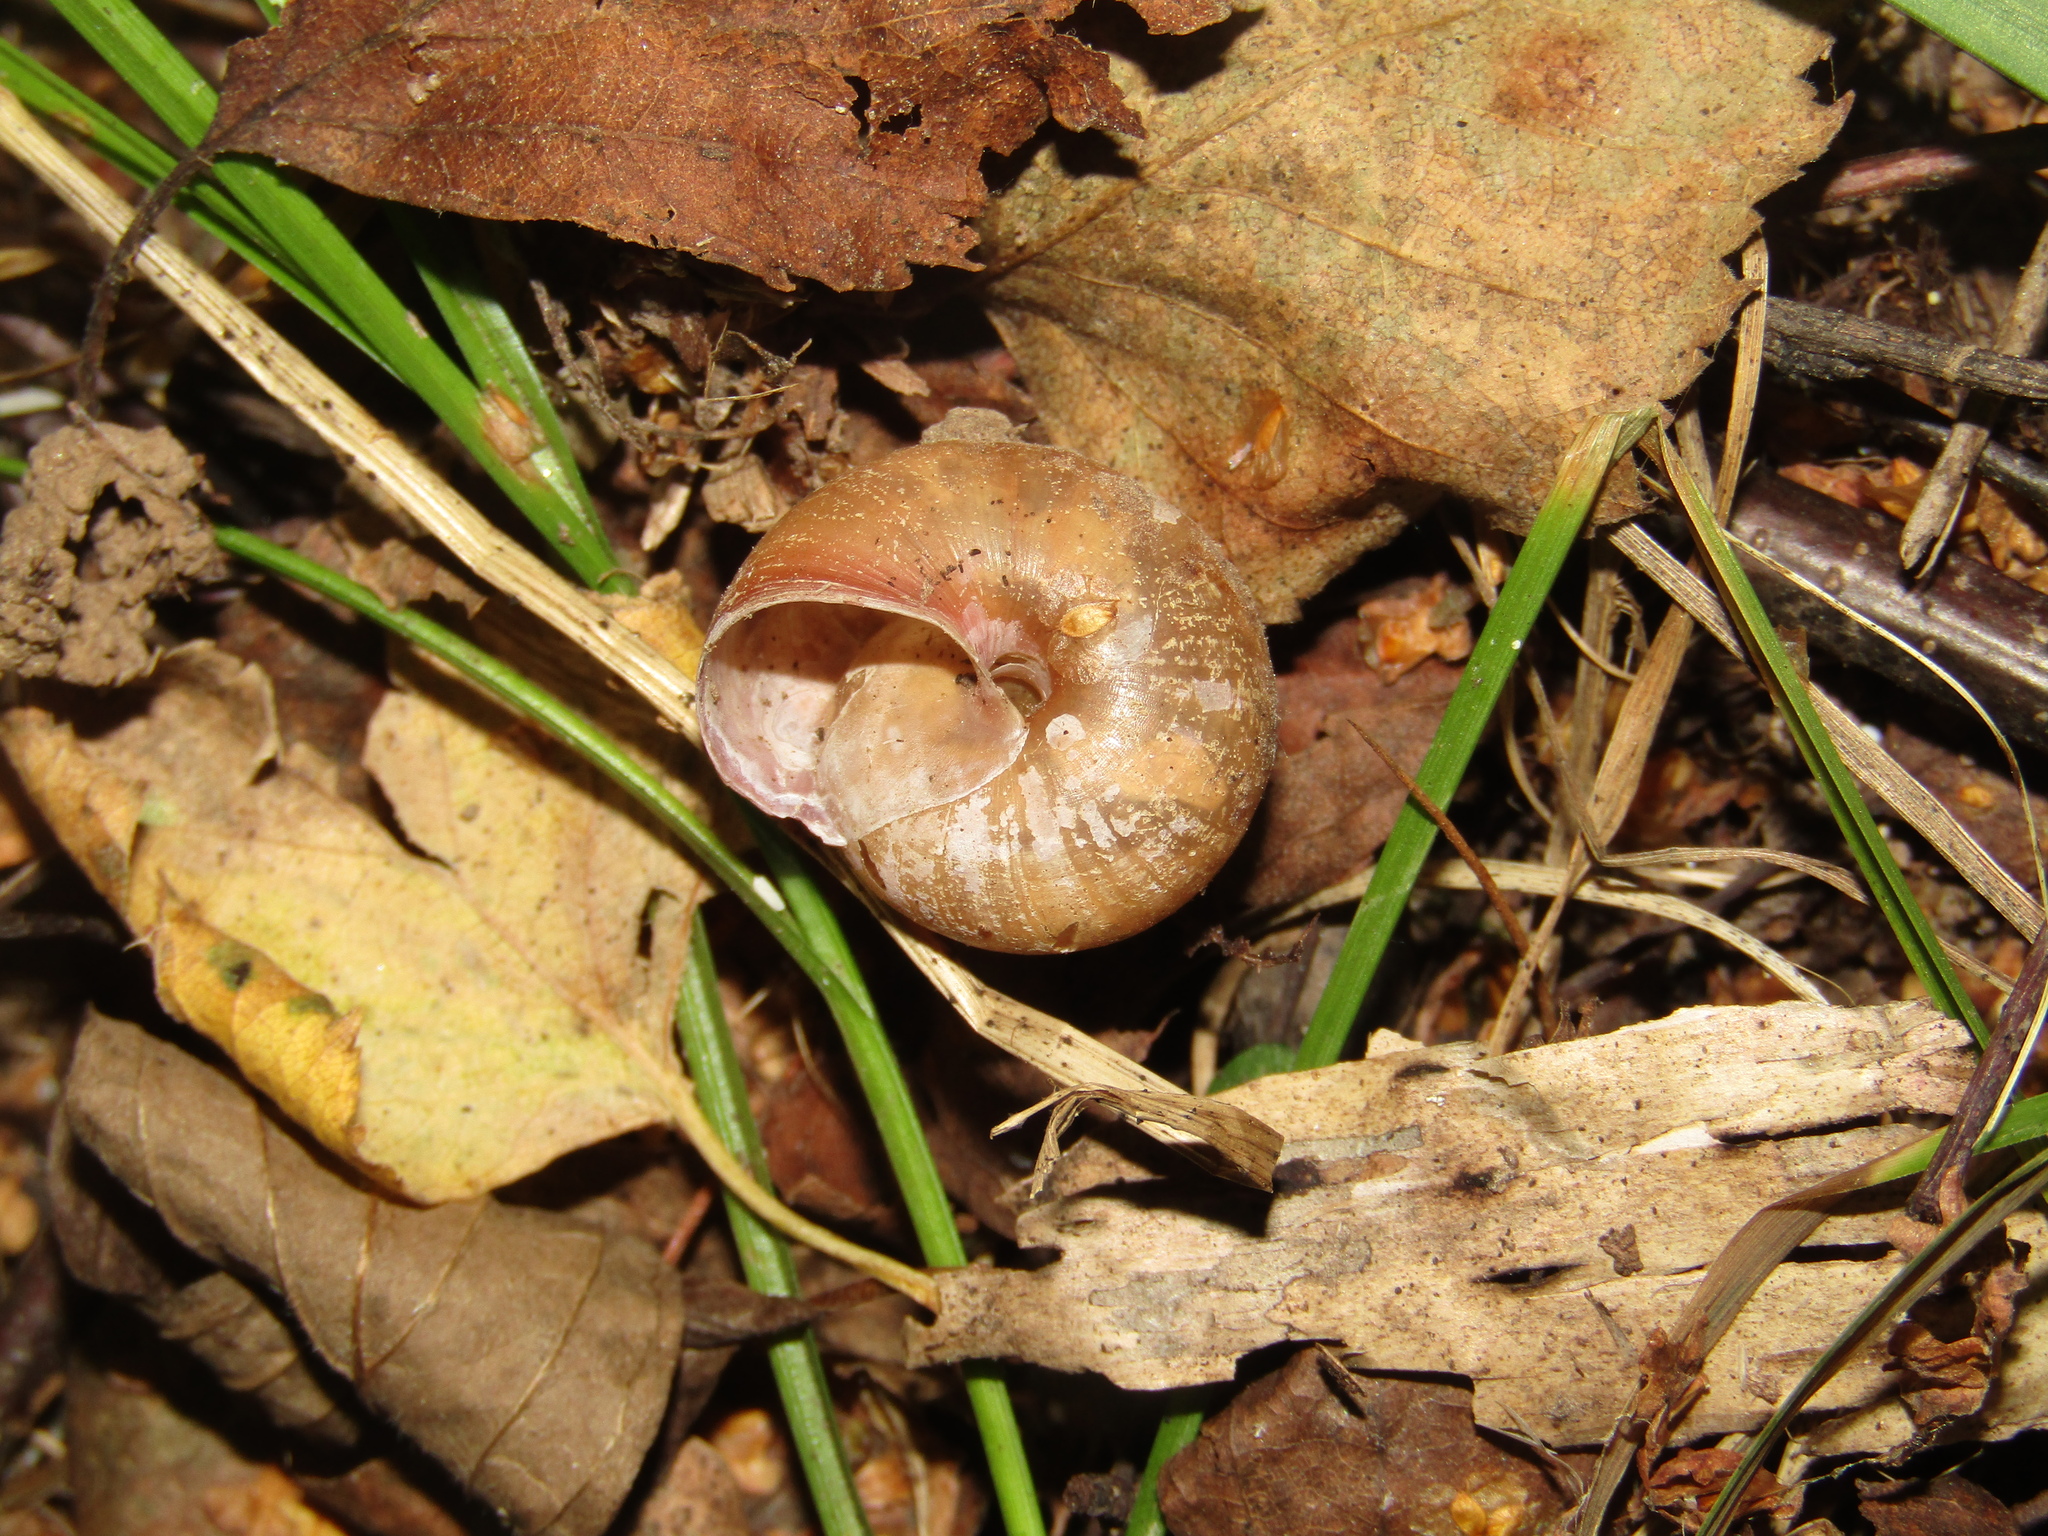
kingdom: Animalia
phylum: Mollusca
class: Gastropoda
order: Stylommatophora
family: Camaenidae
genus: Fruticicola
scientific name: Fruticicola fruticum
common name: Bush snail
